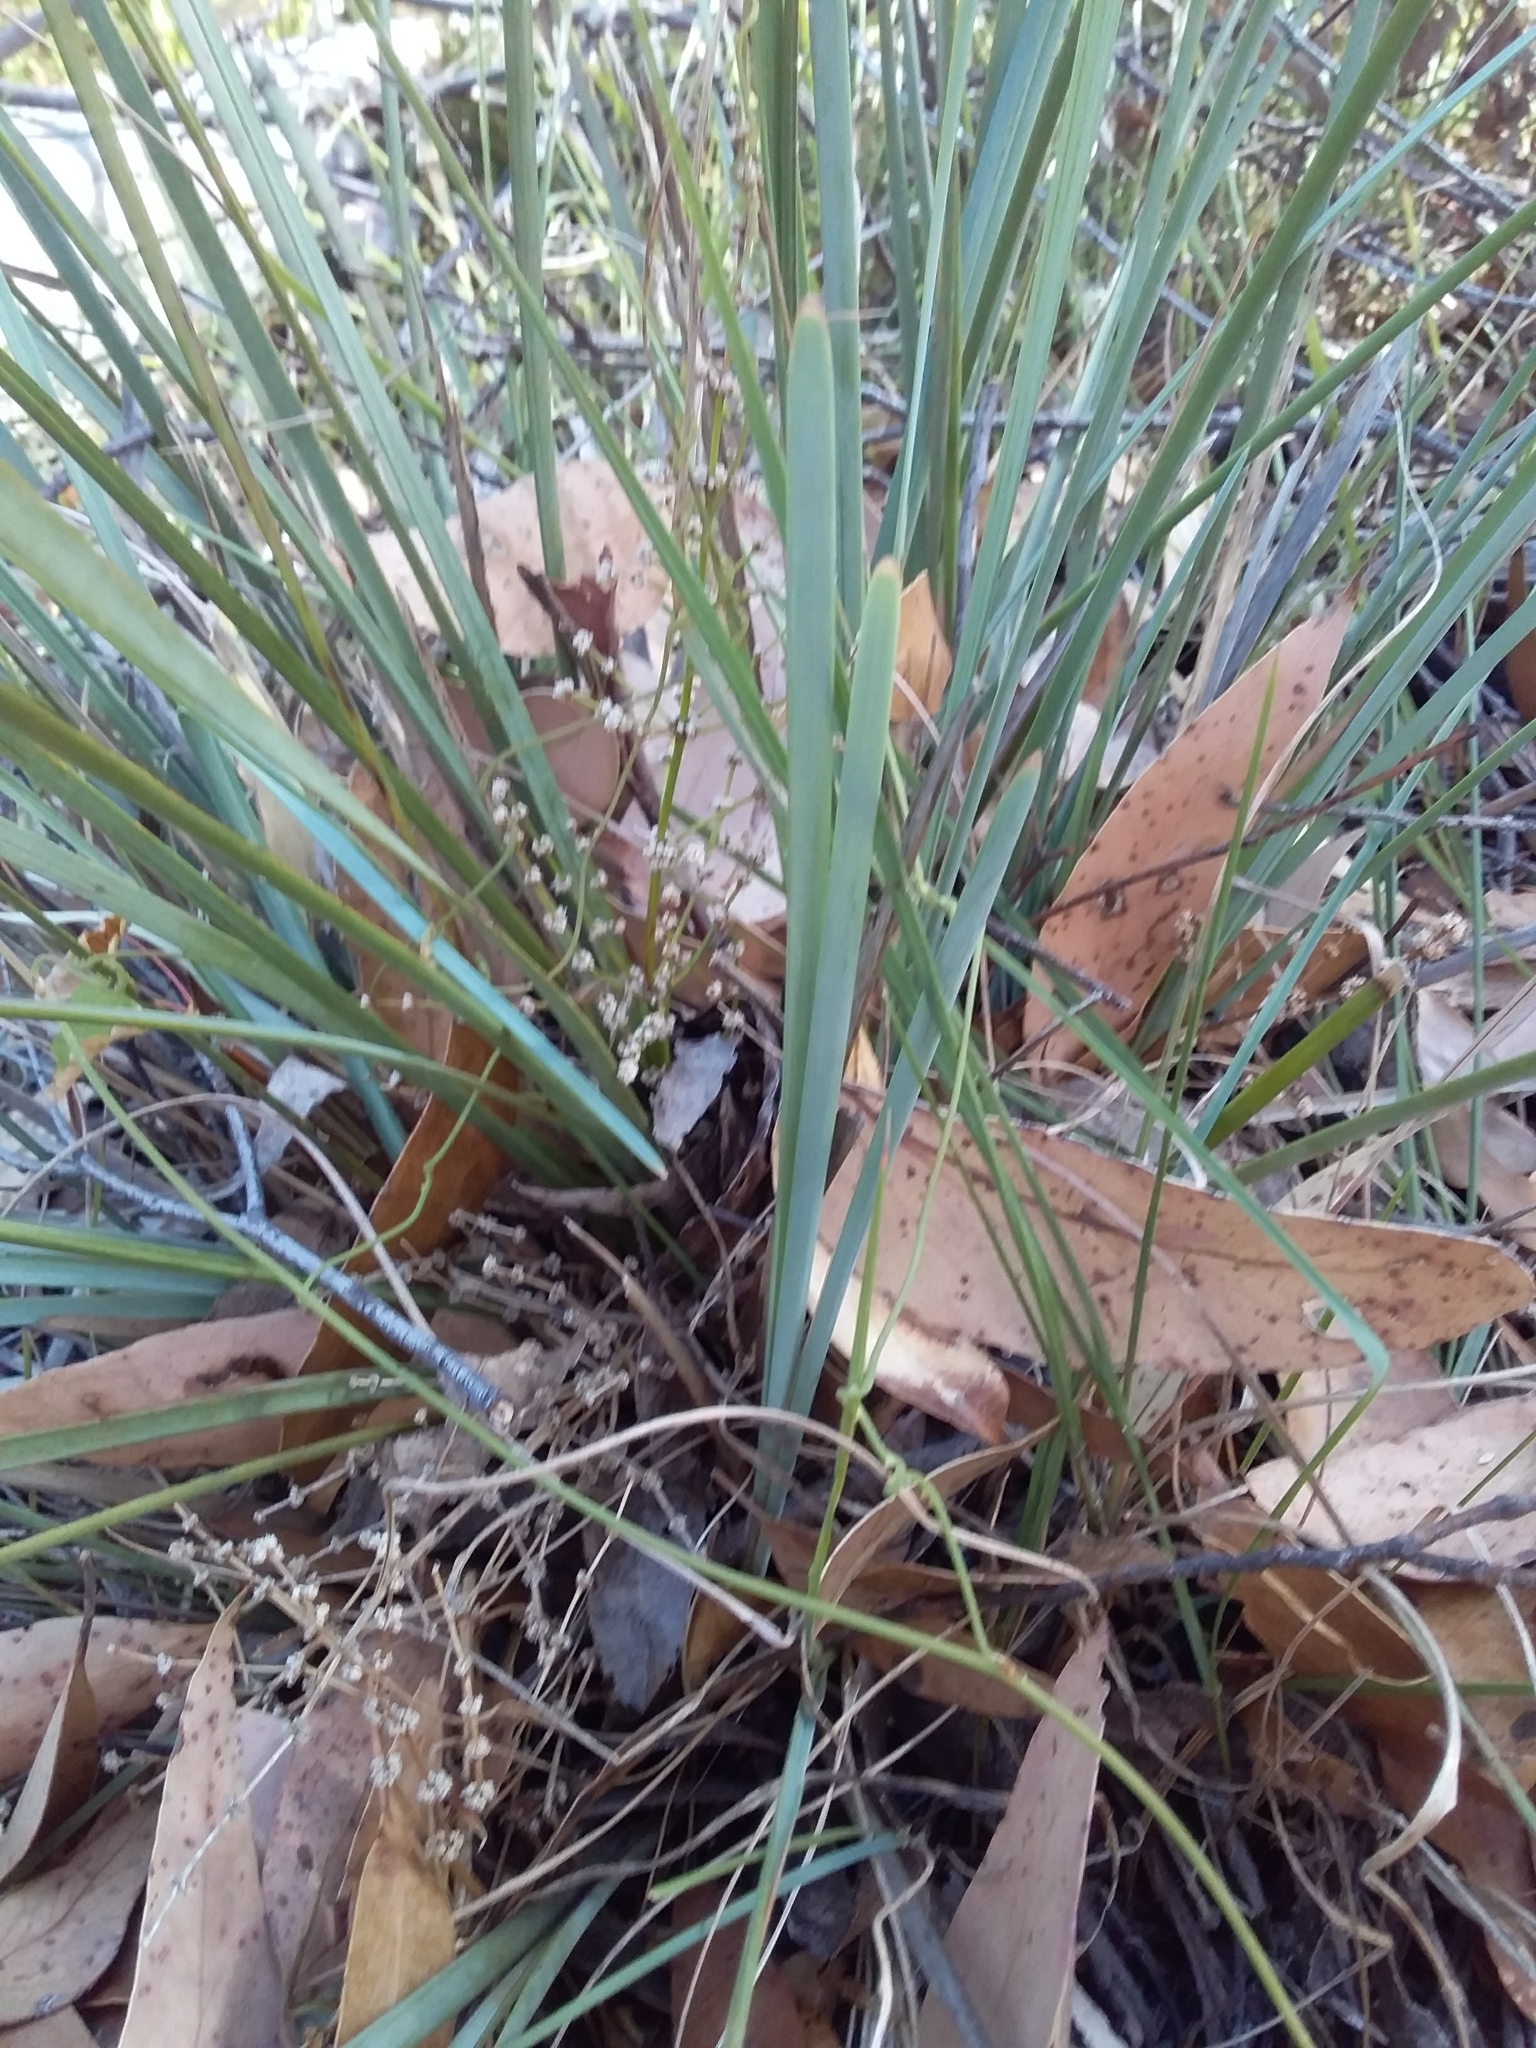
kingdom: Plantae
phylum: Tracheophyta
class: Liliopsida
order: Asparagales
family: Asparagaceae
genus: Lomandra
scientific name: Lomandra multiflora
